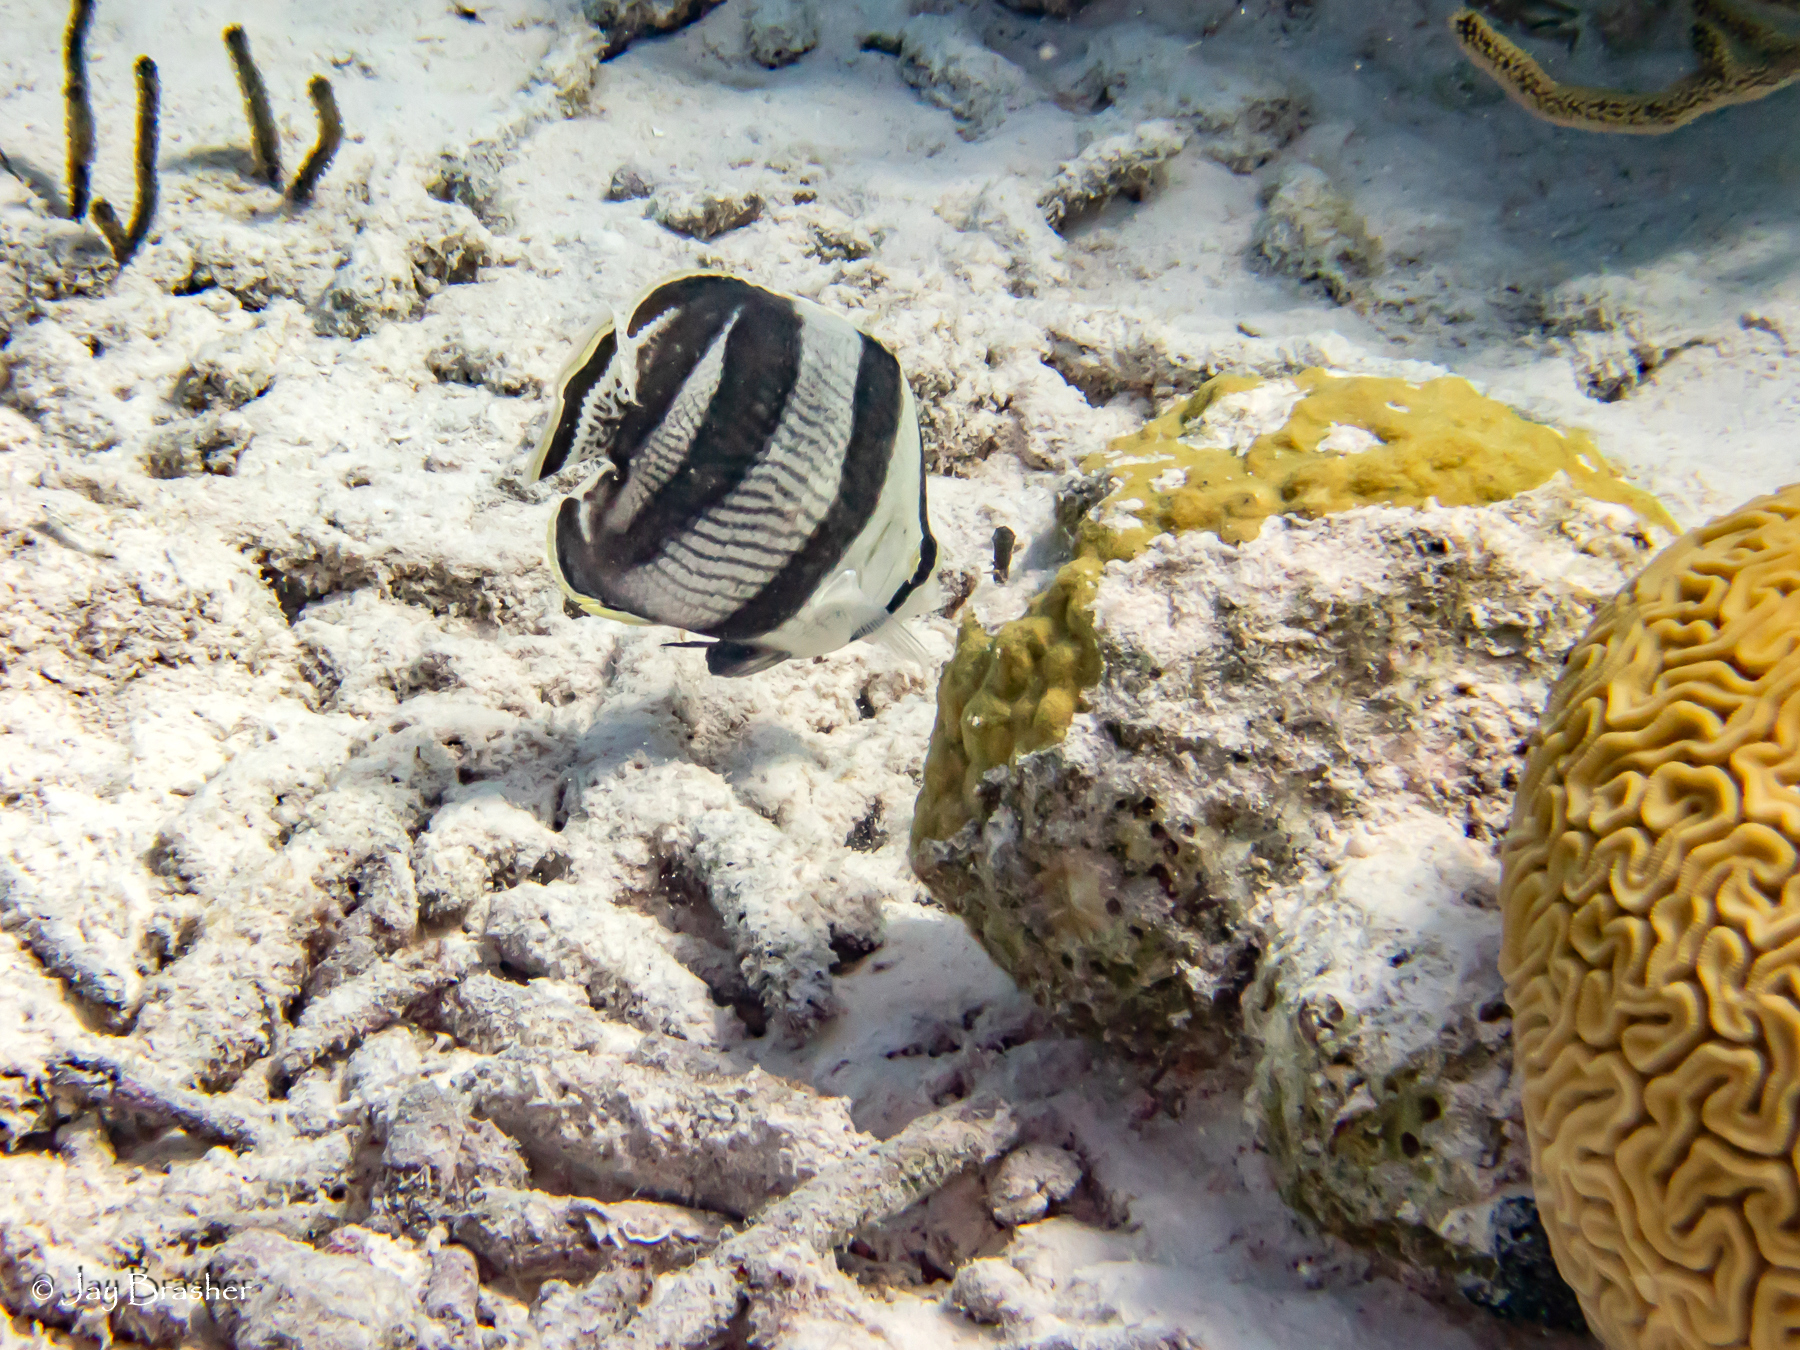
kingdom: Animalia
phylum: Chordata
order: Perciformes
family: Chaetodontidae
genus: Chaetodon
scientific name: Chaetodon striatus
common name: Banded butterflyfish
